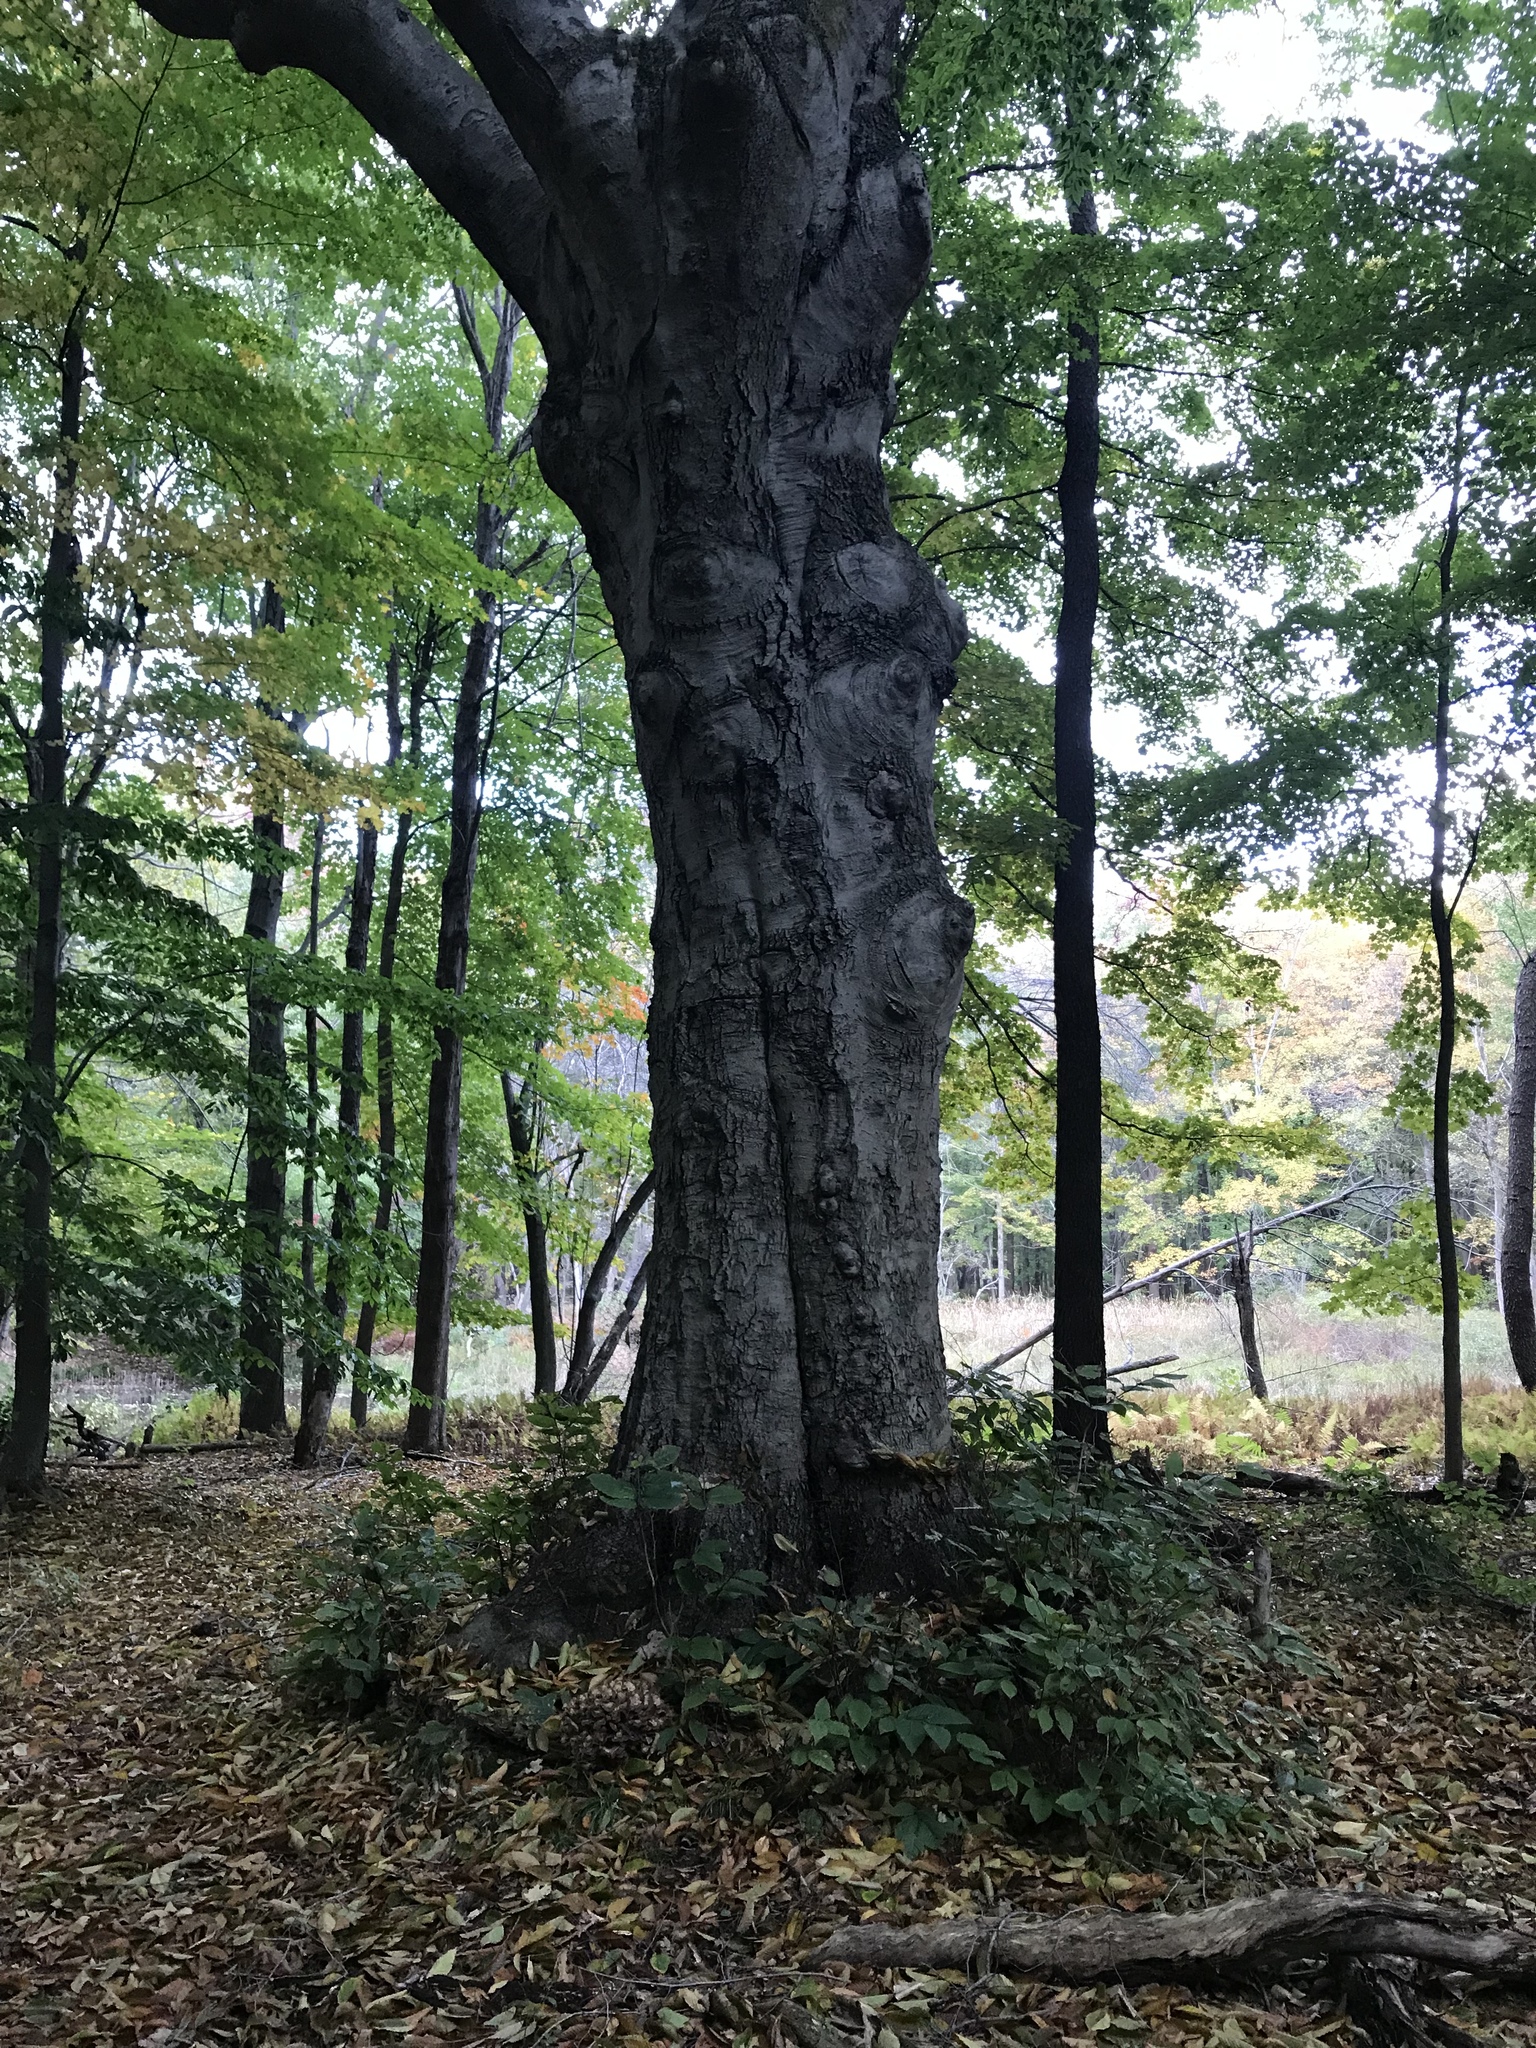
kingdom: Fungi
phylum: Basidiomycota
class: Agaricomycetes
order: Polyporales
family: Grifolaceae
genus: Grifola
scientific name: Grifola frondosa
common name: Hen of the woods
